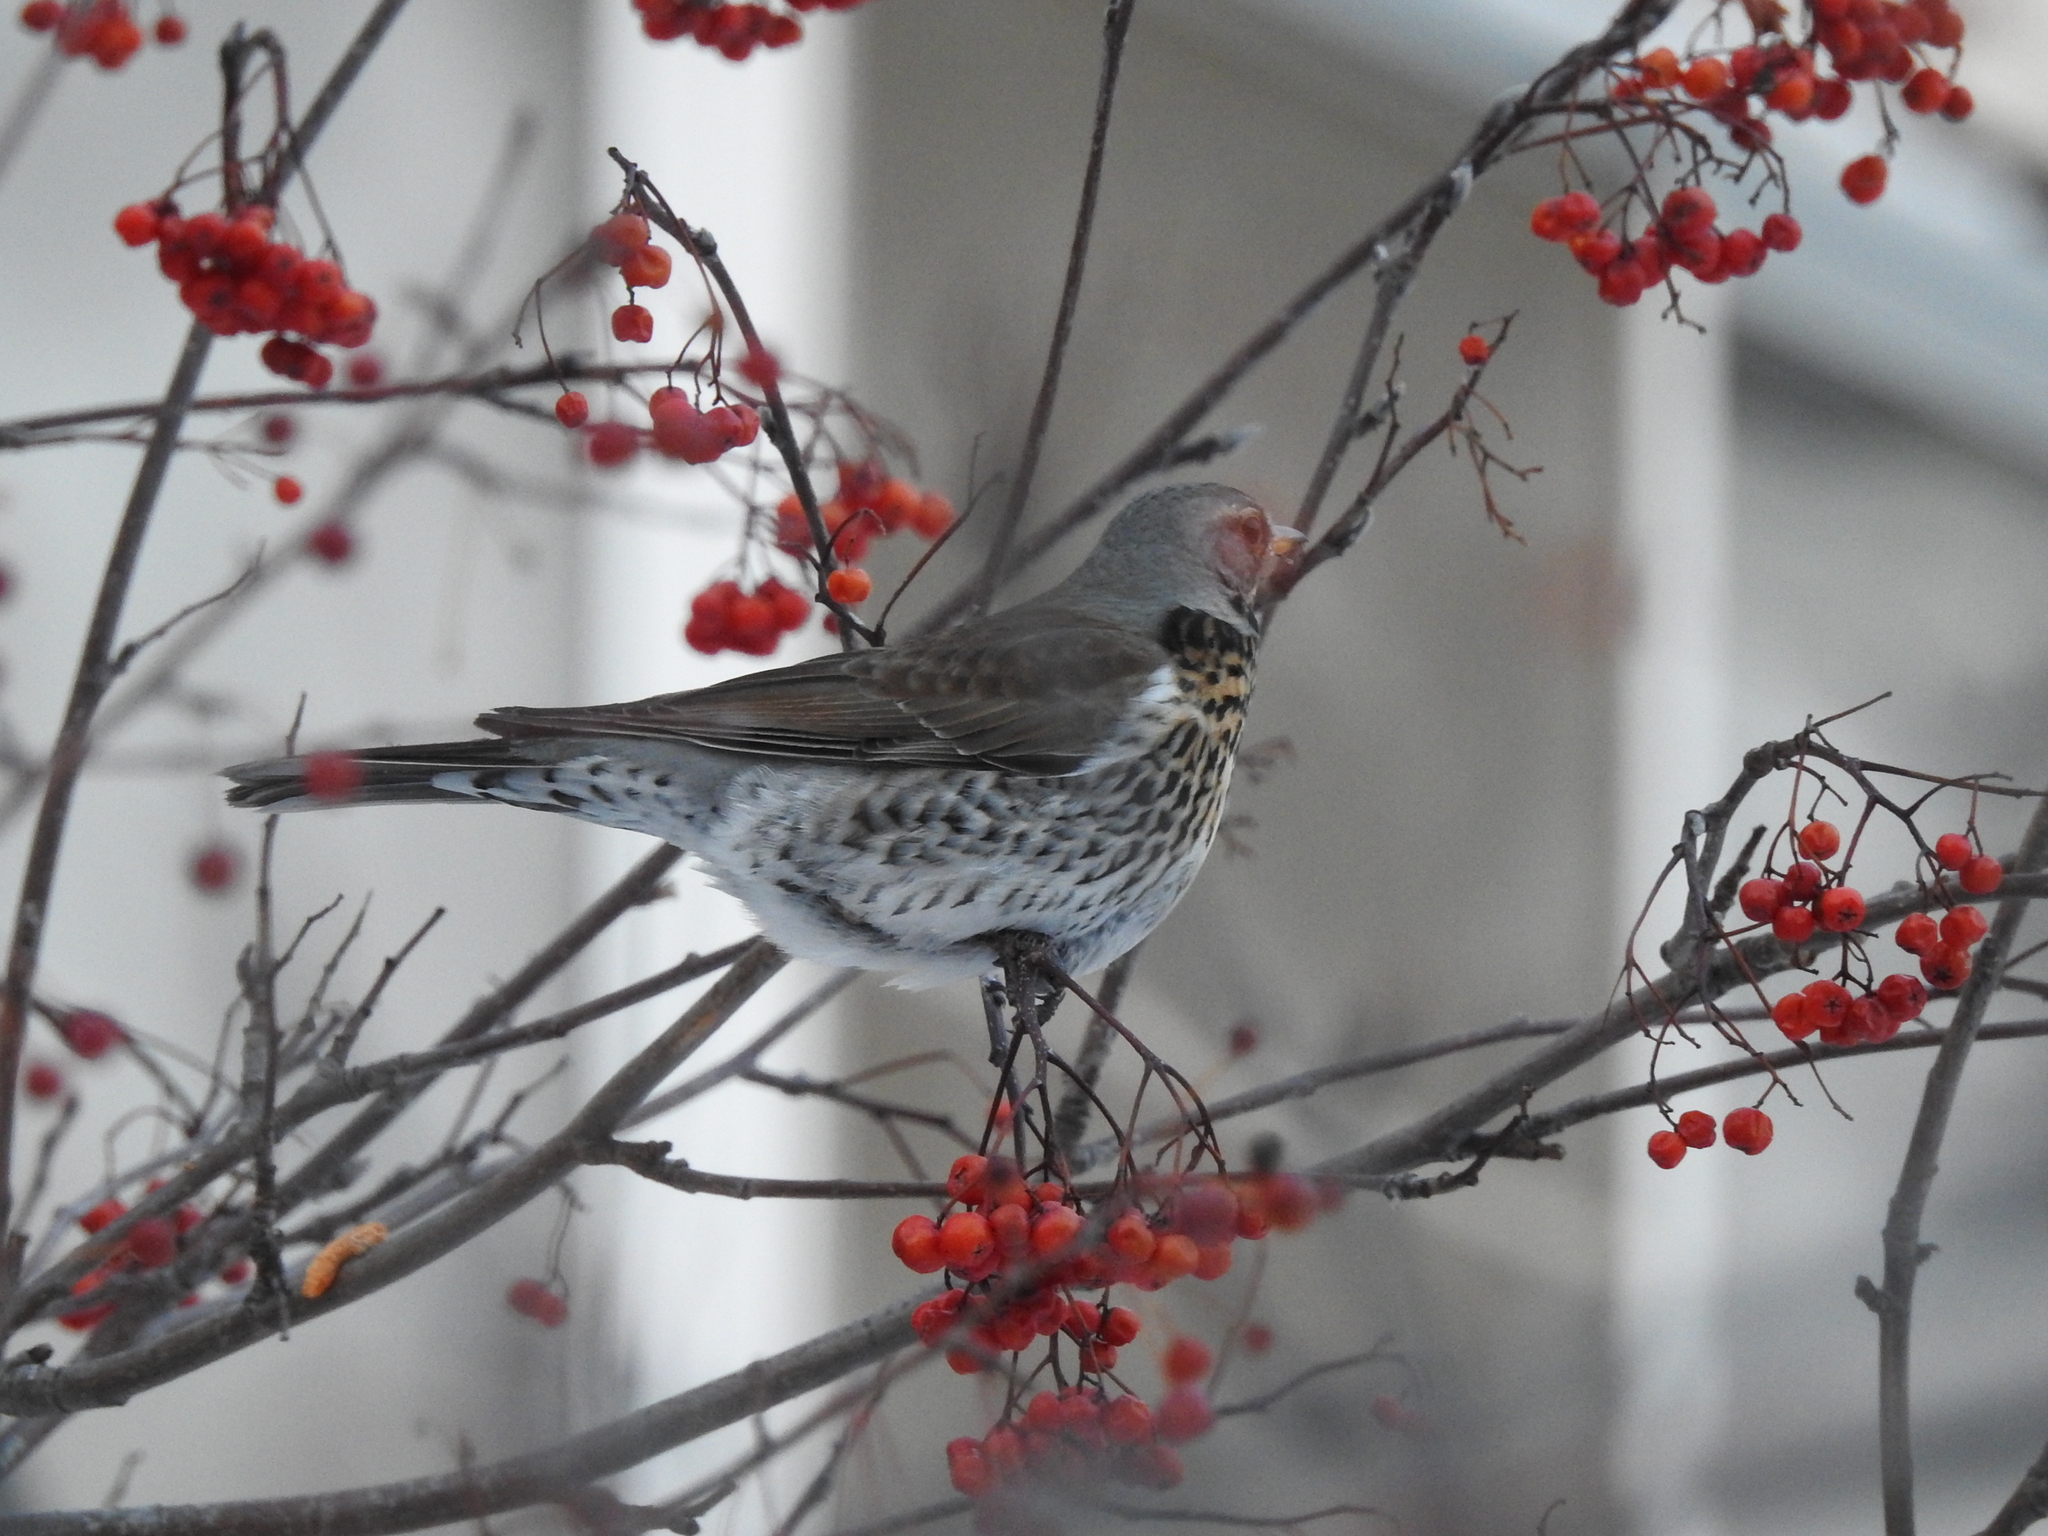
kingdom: Animalia
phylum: Chordata
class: Aves
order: Passeriformes
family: Turdidae
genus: Turdus
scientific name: Turdus pilaris
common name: Fieldfare
